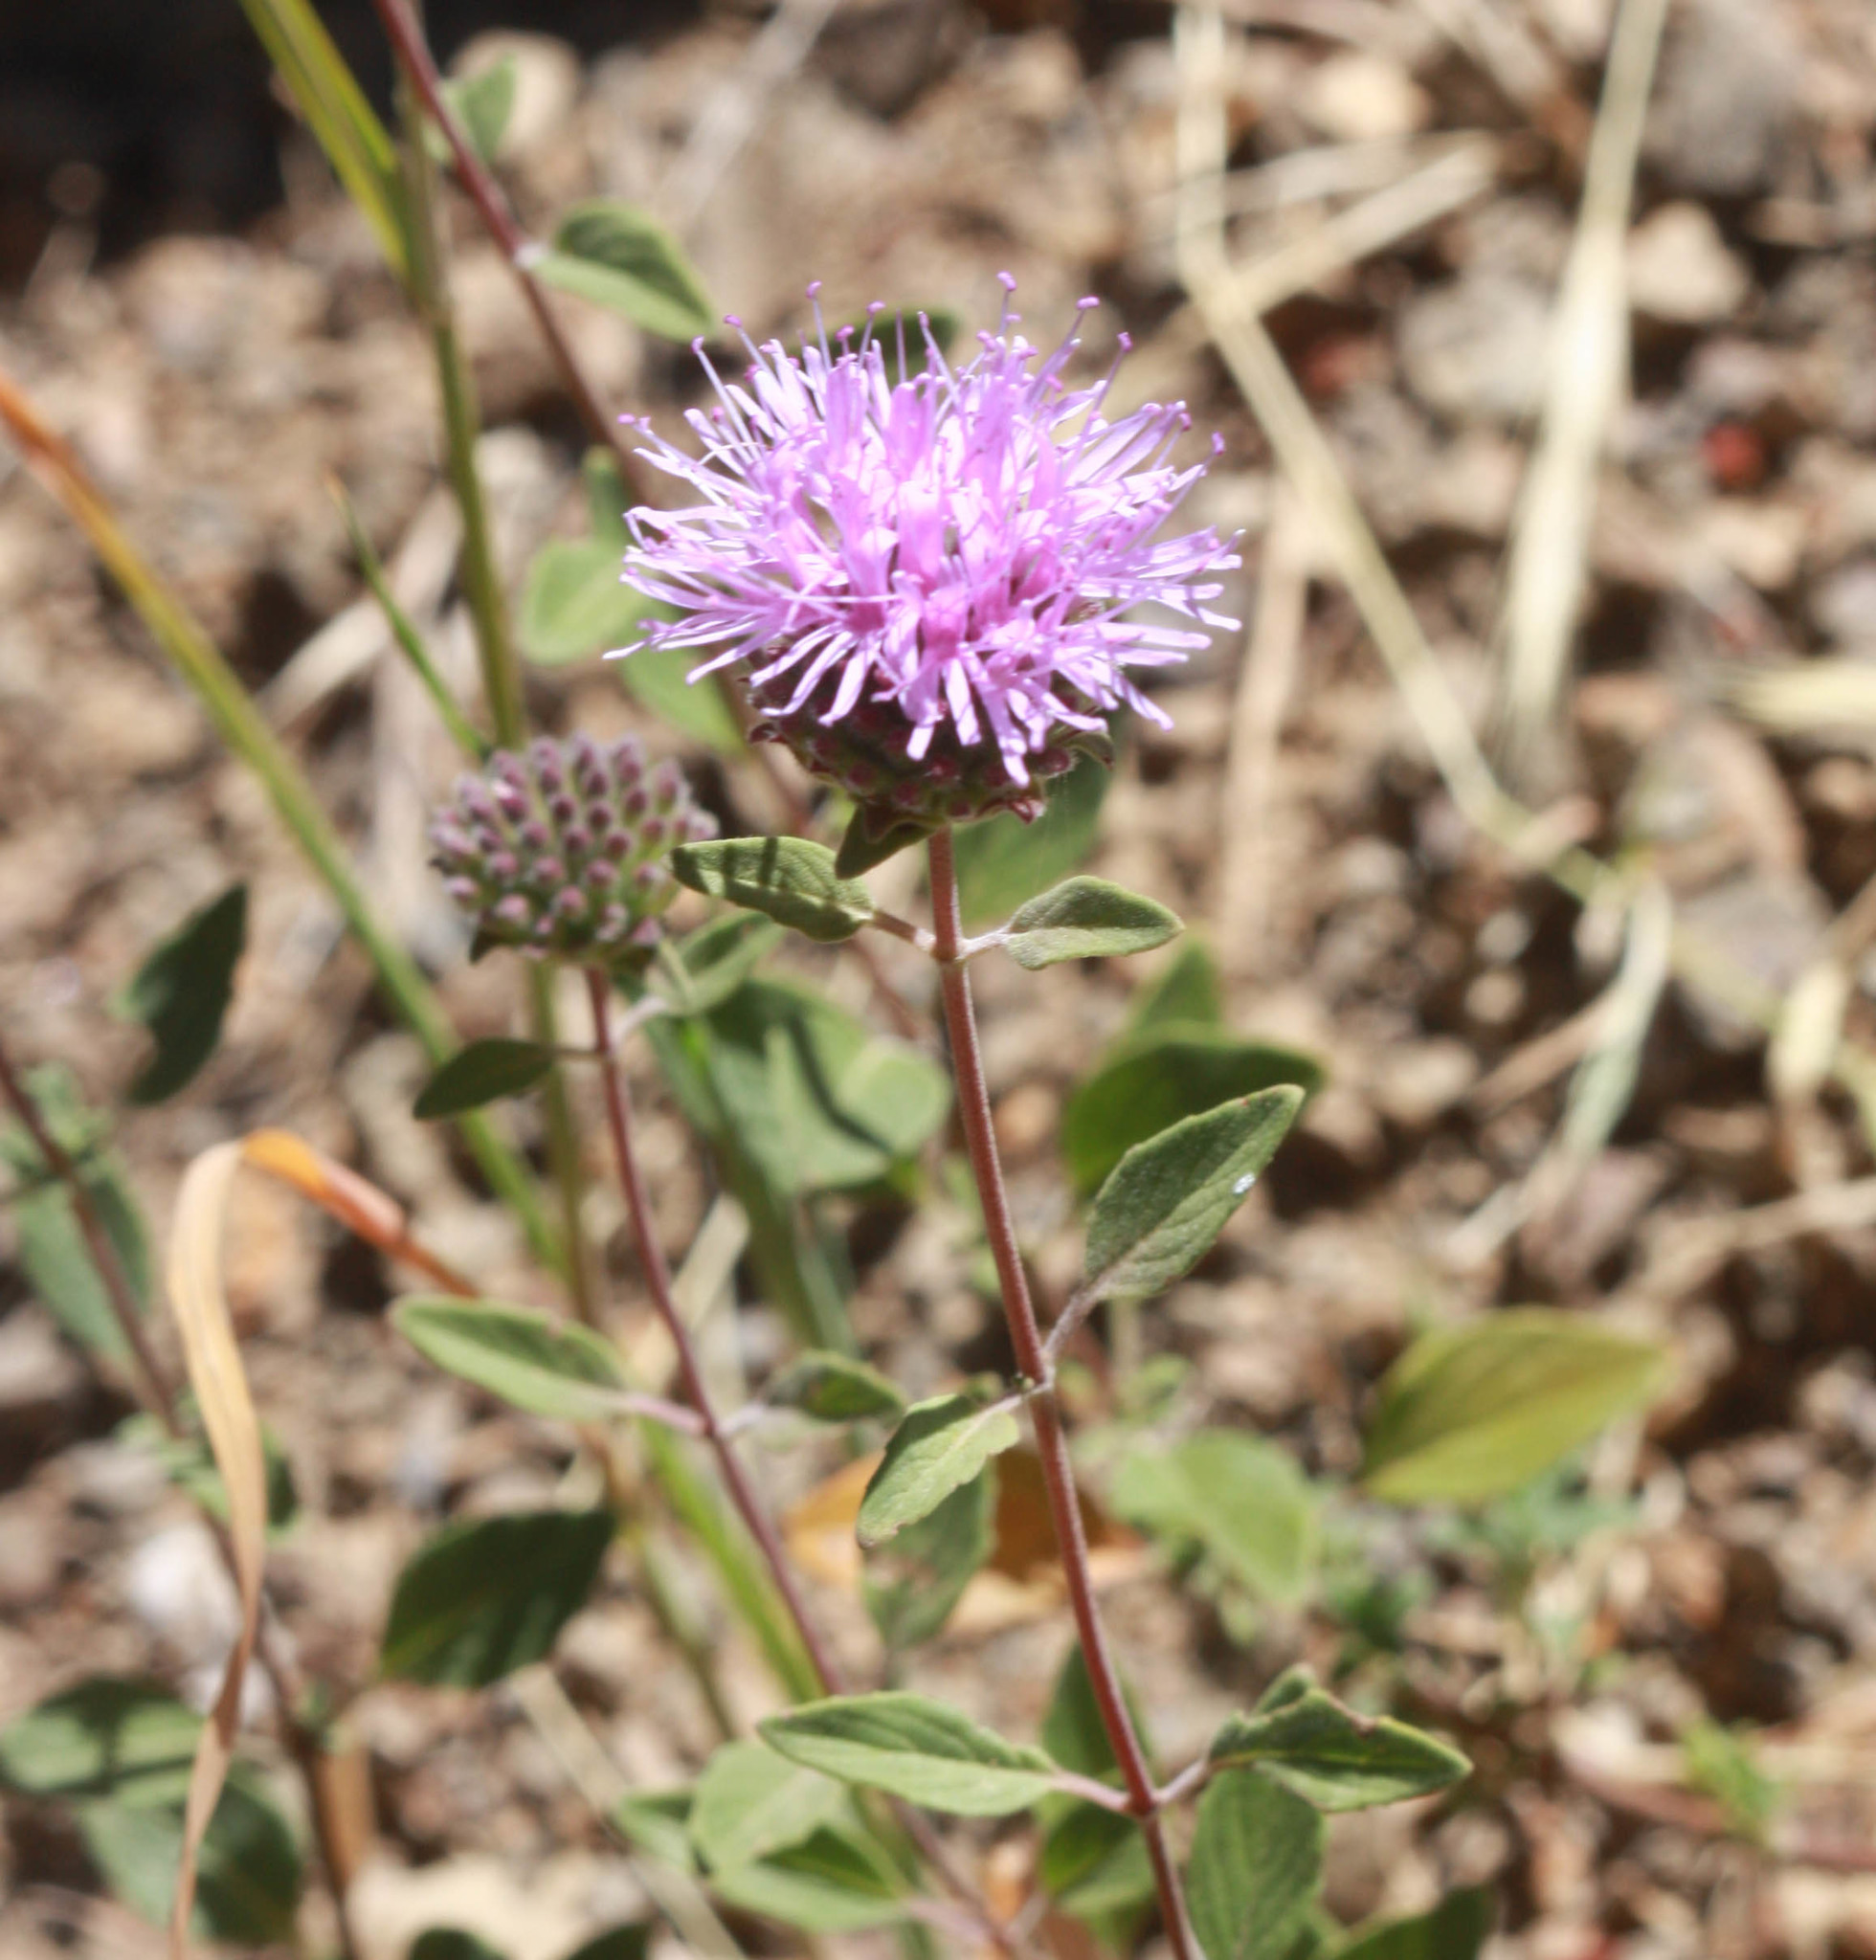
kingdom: Plantae
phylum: Tracheophyta
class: Magnoliopsida
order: Lamiales
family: Lamiaceae
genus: Monardella
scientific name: Monardella odoratissima
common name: Pacific monardella
